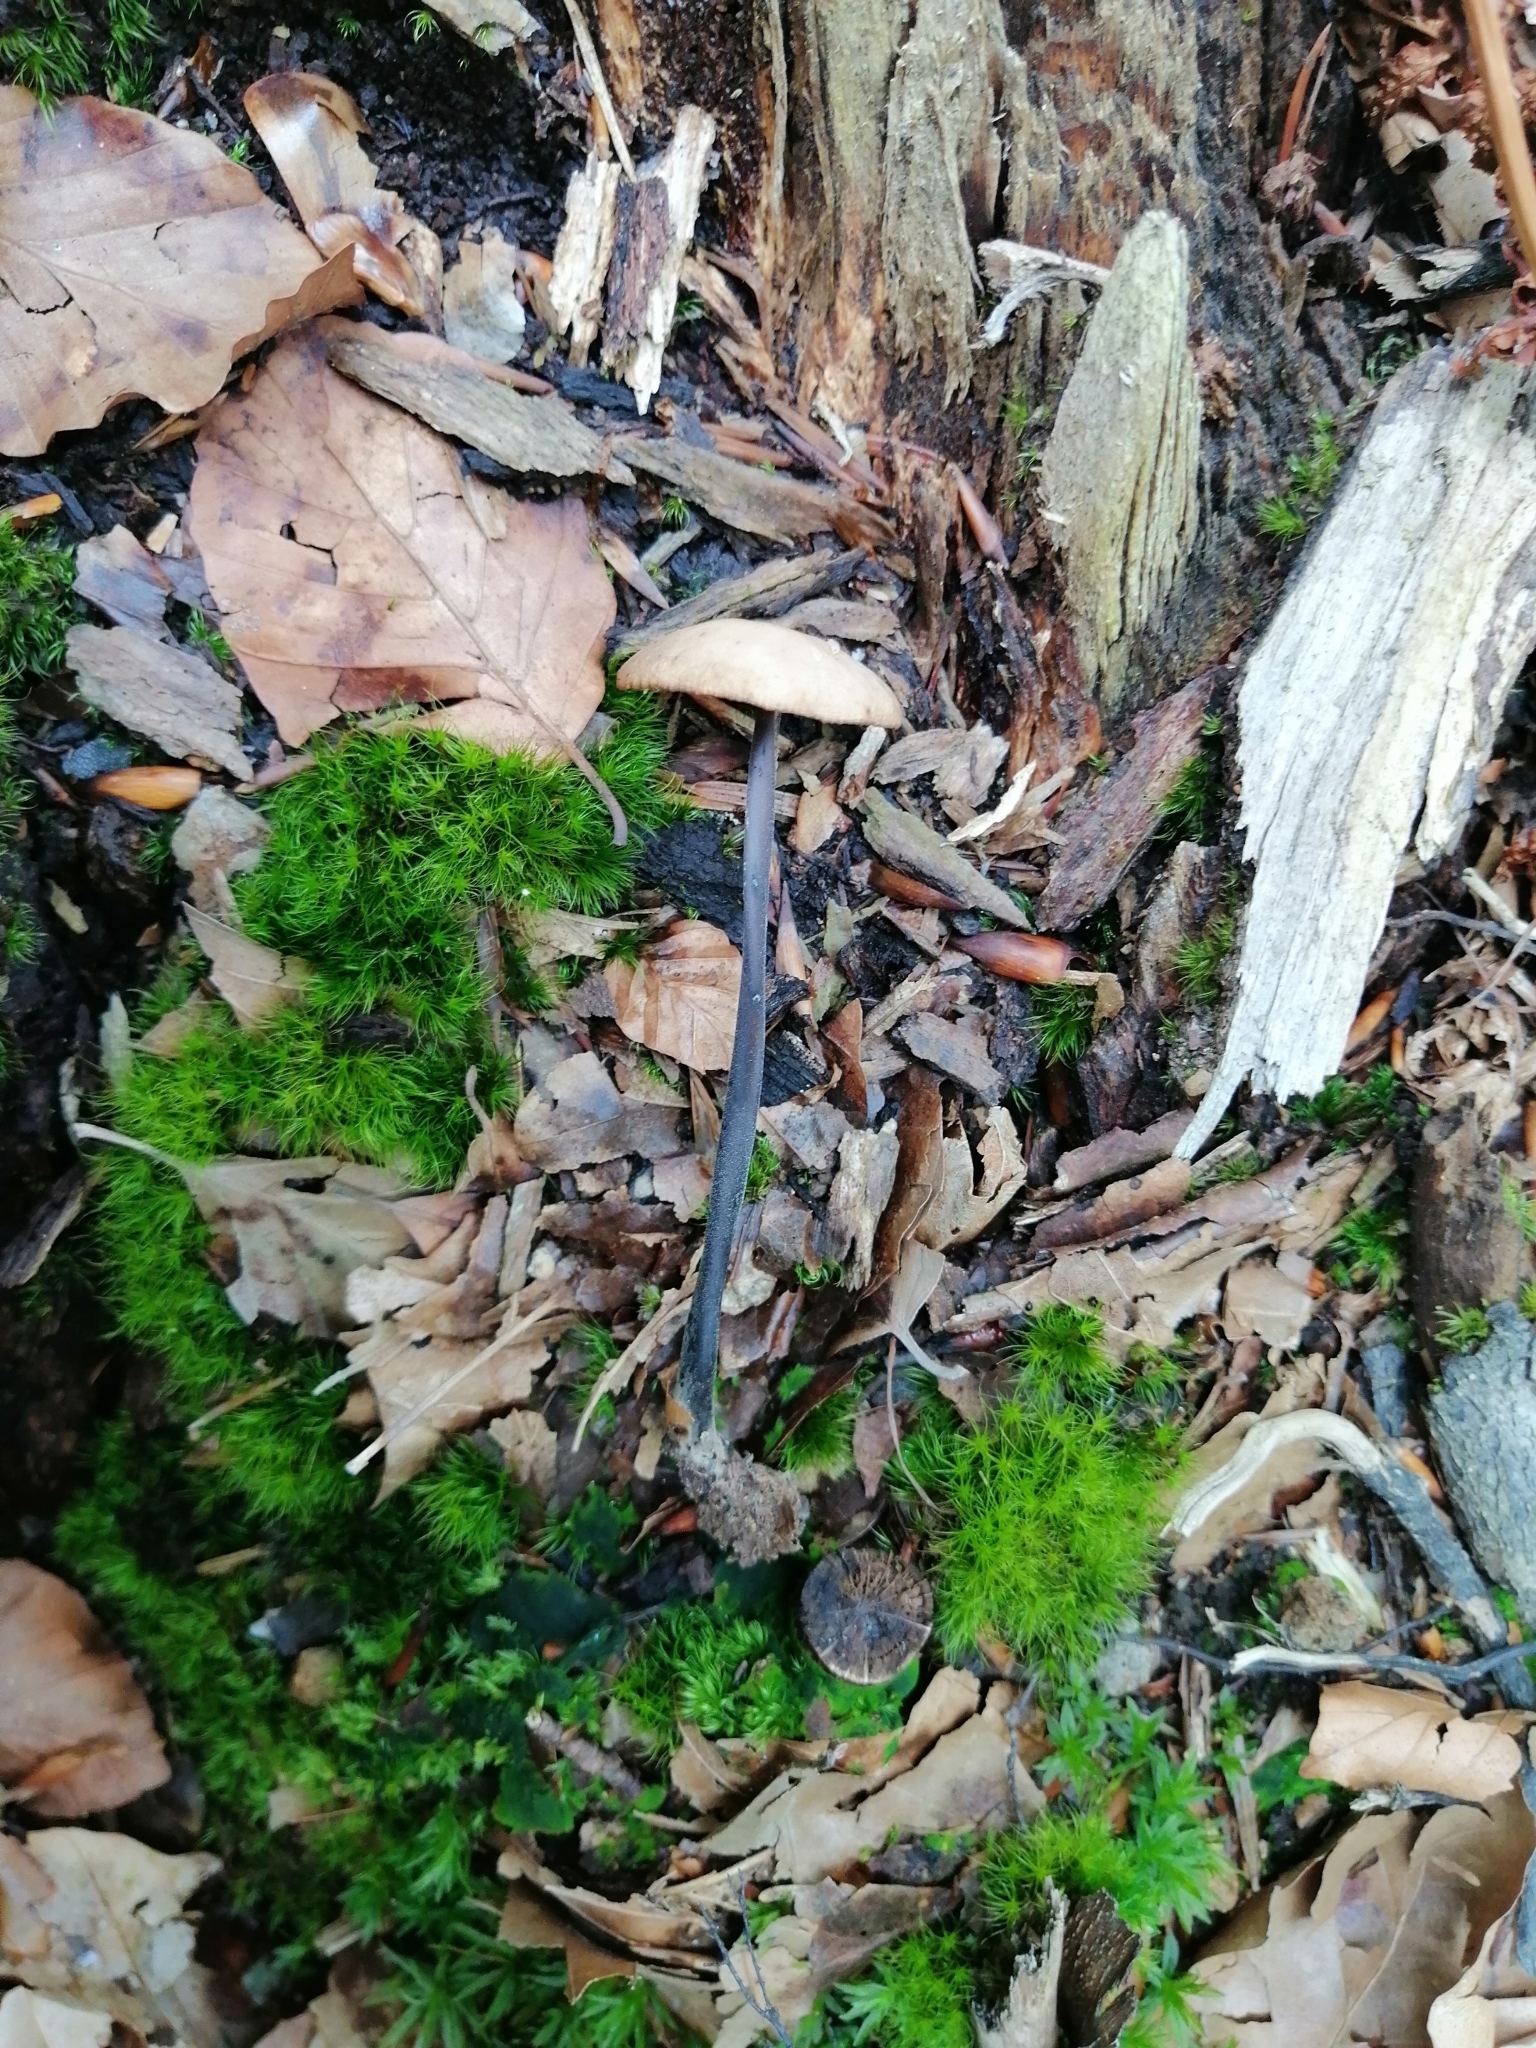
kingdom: Fungi
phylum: Basidiomycota
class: Agaricomycetes
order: Agaricales
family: Omphalotaceae
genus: Mycetinis
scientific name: Mycetinis alliaceus
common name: Garlic parachute
